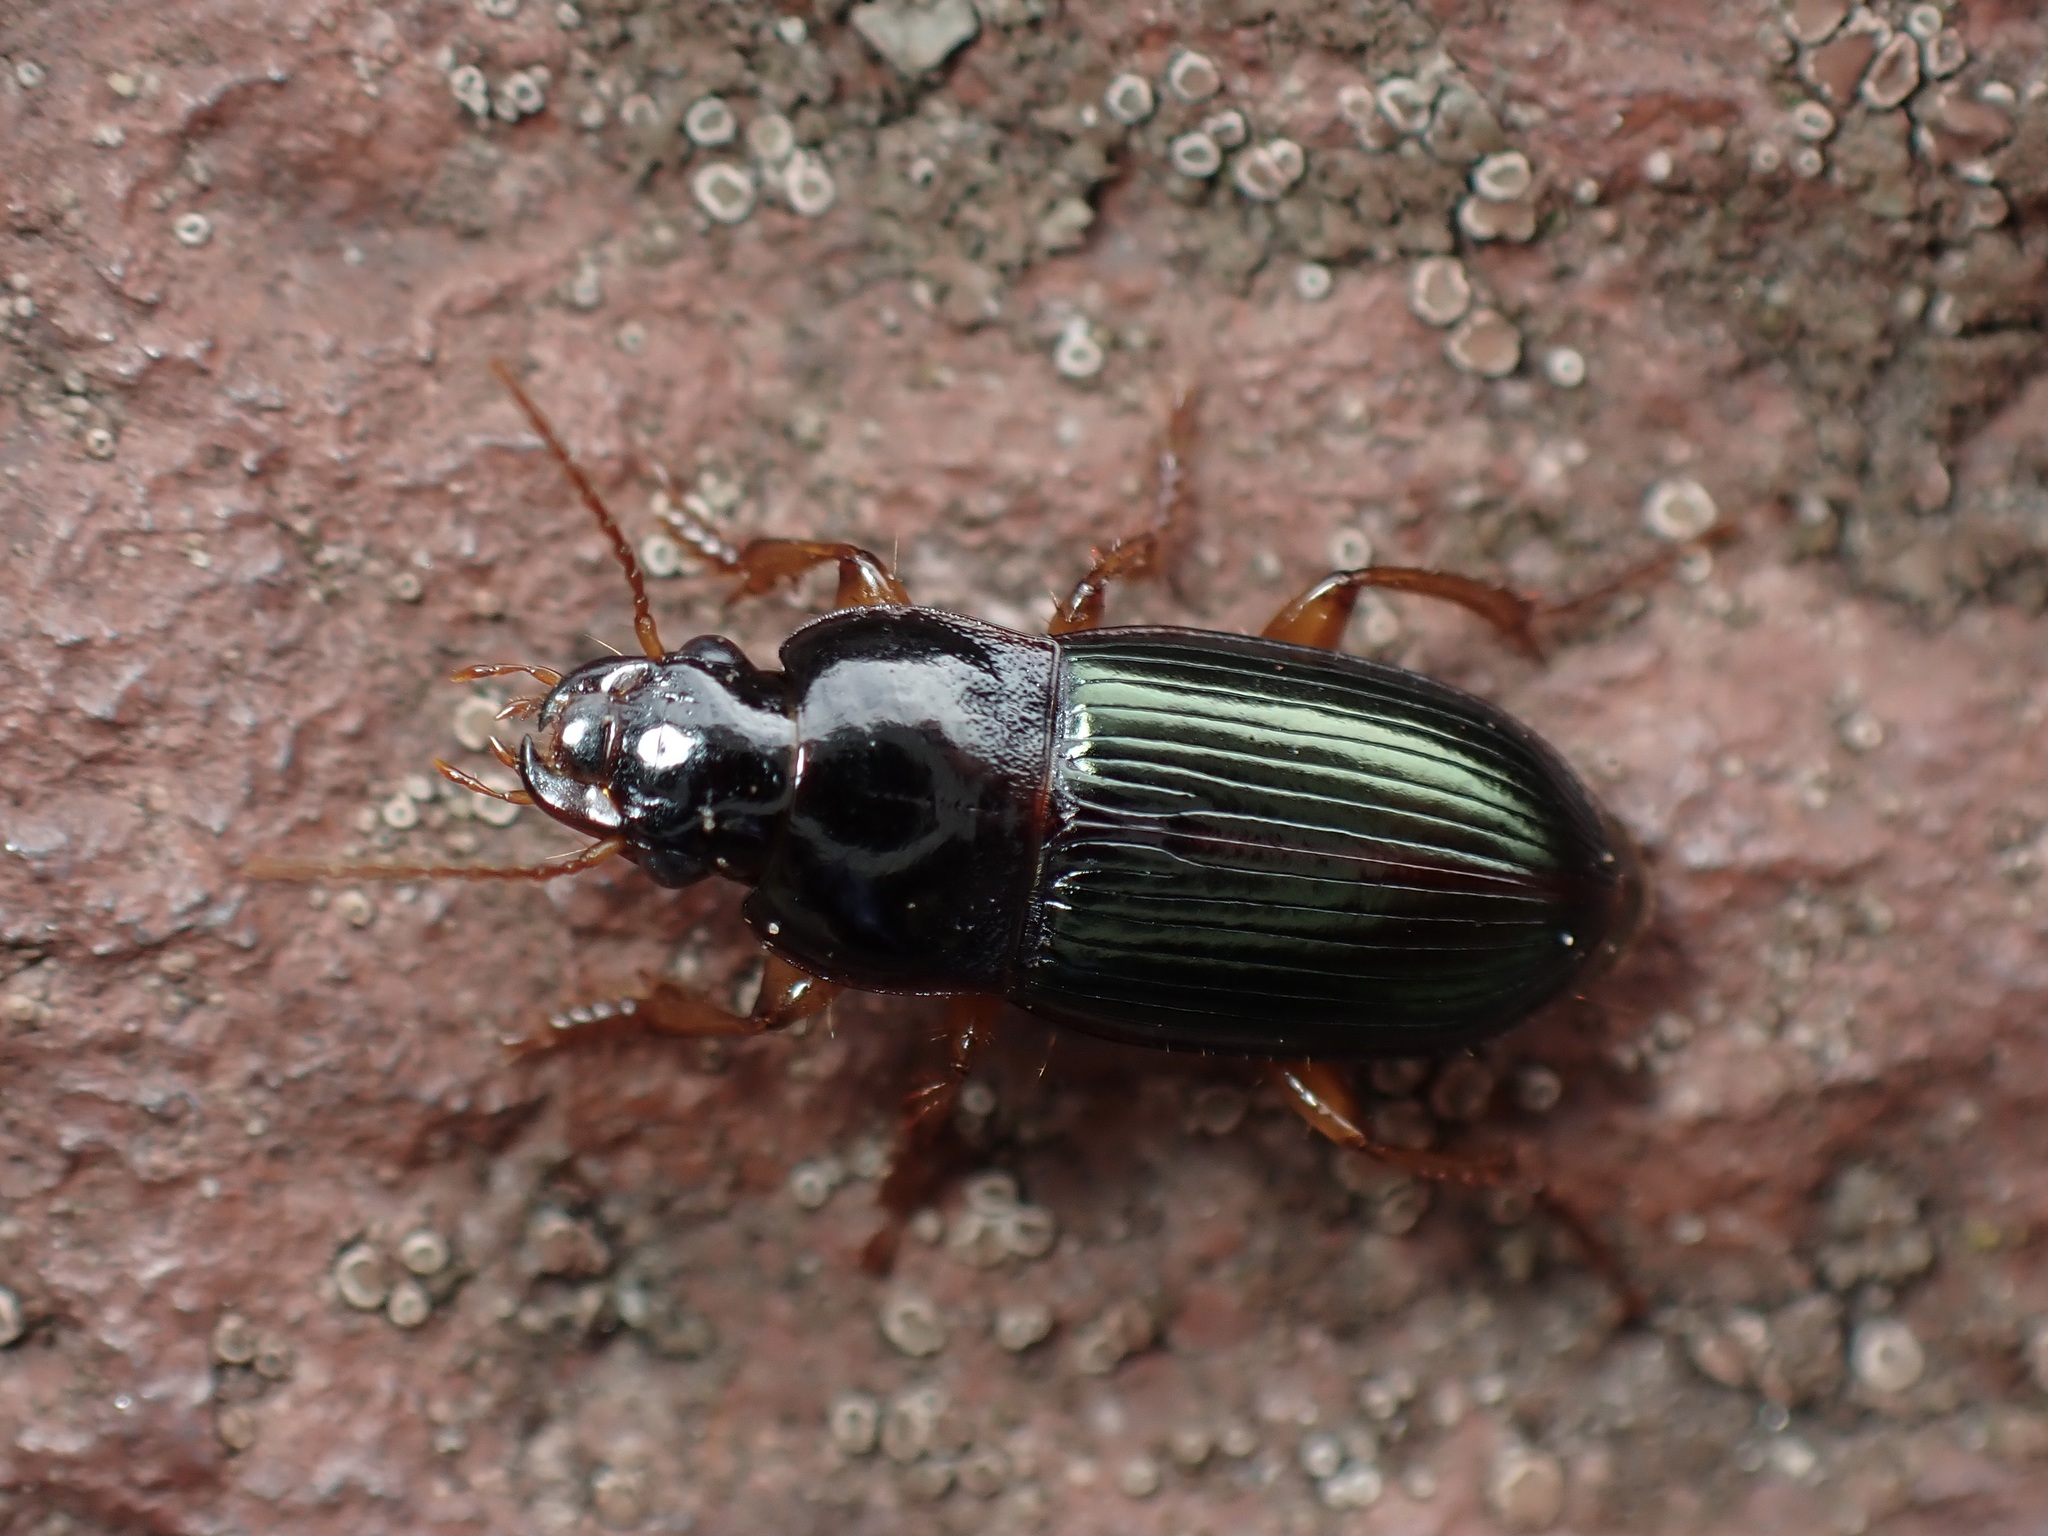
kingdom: Animalia
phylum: Arthropoda
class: Insecta
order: Coleoptera
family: Carabidae
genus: Harpalus
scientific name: Harpalus smaragdinus
